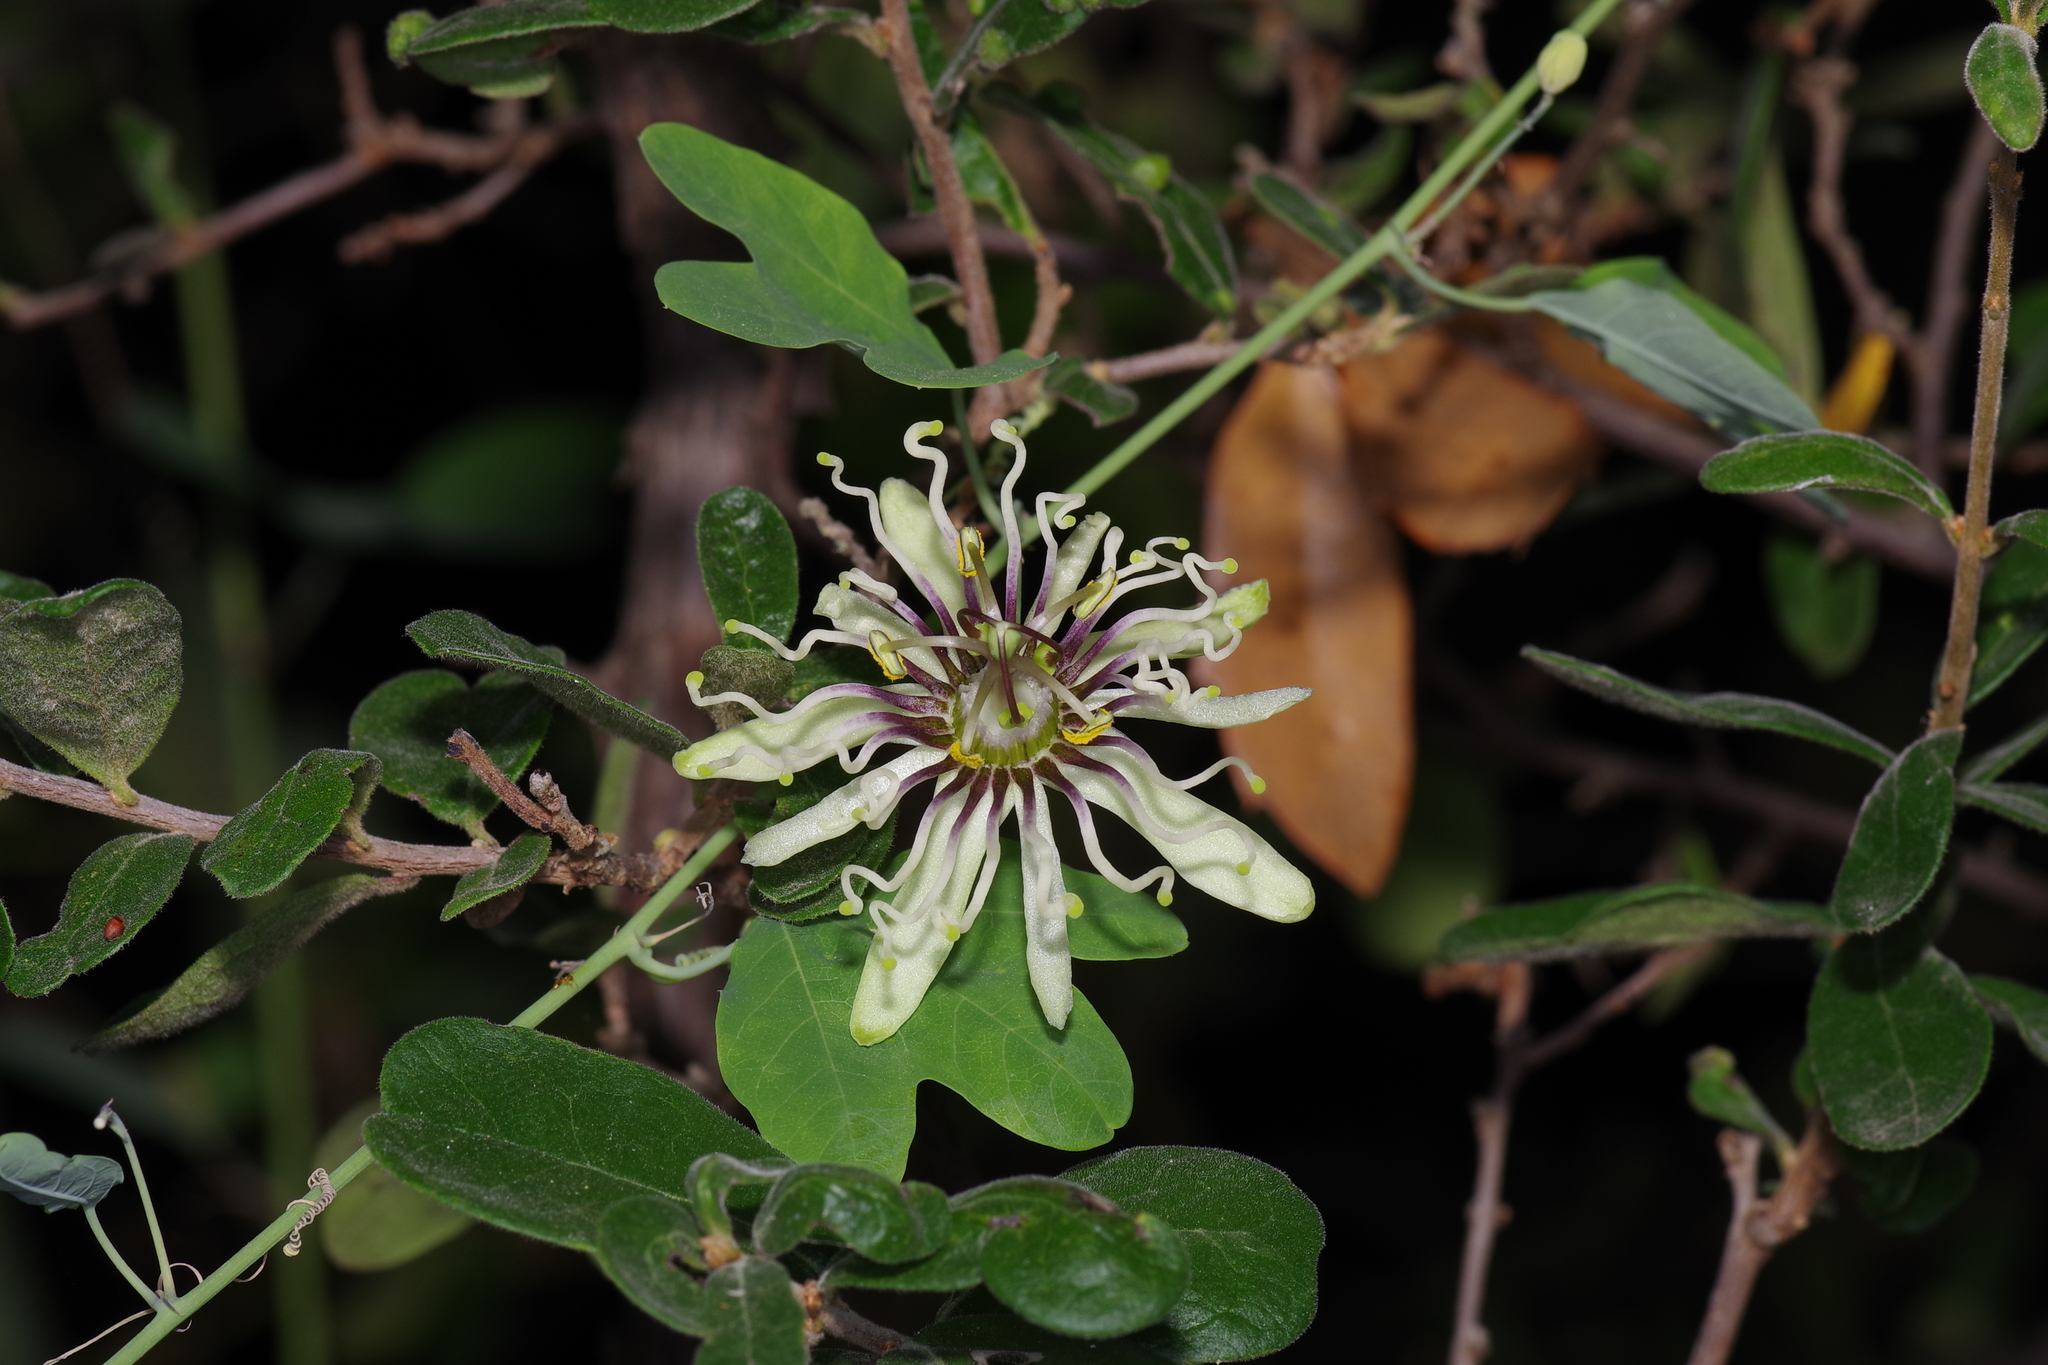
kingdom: Plantae
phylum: Tracheophyta
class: Magnoliopsida
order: Malpighiales
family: Passifloraceae
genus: Passiflora
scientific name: Passiflora affinis
